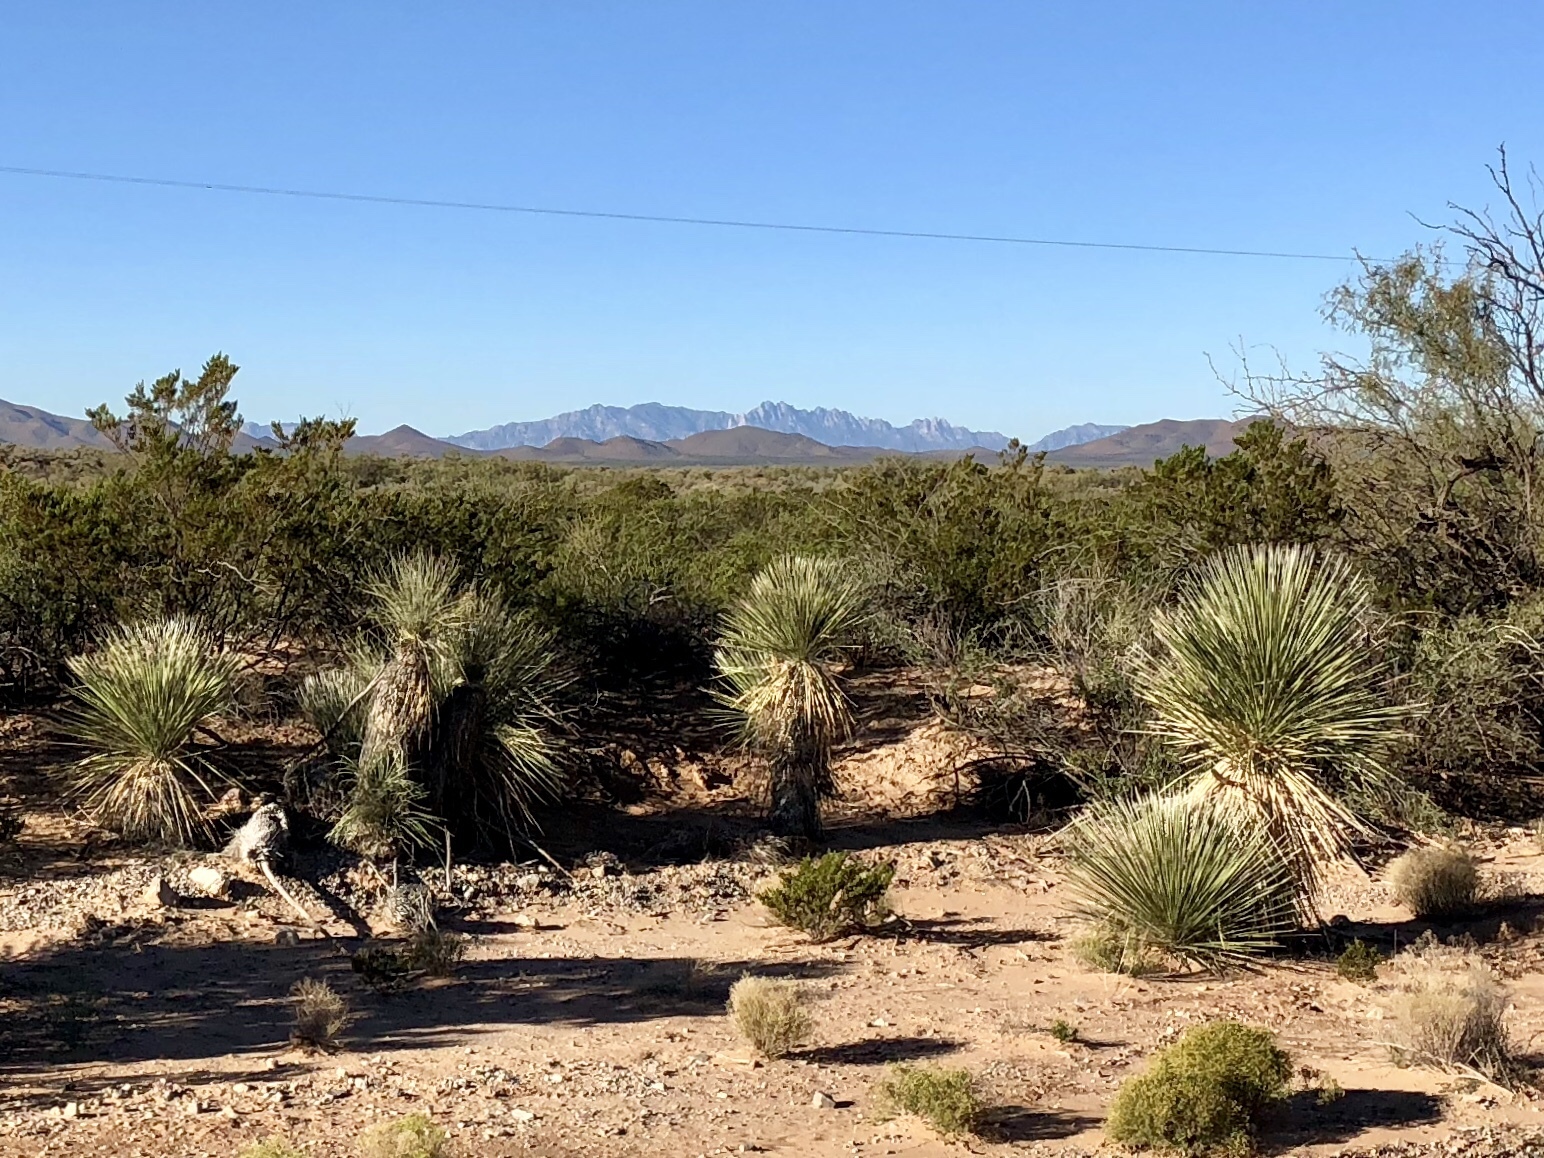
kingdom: Plantae
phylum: Tracheophyta
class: Liliopsida
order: Asparagales
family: Asparagaceae
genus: Yucca
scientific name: Yucca elata
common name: Palmella
